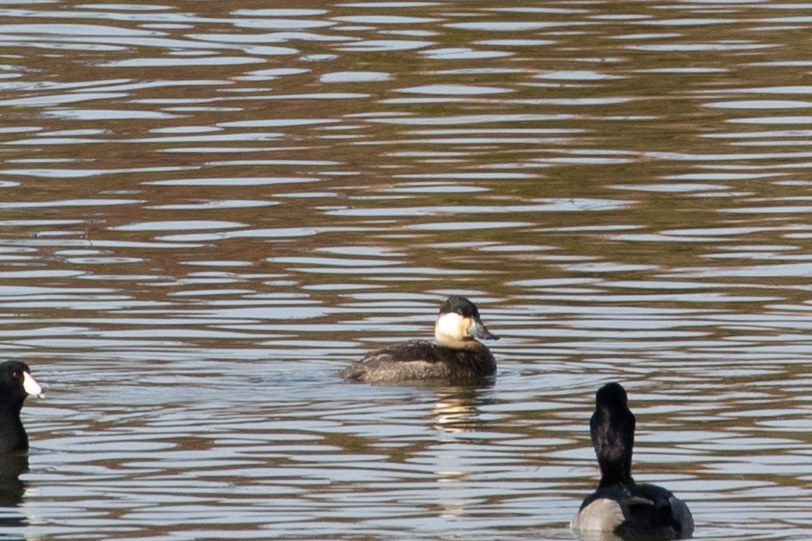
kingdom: Animalia
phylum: Chordata
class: Aves
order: Anseriformes
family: Anatidae
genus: Oxyura
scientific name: Oxyura jamaicensis
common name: Ruddy duck
